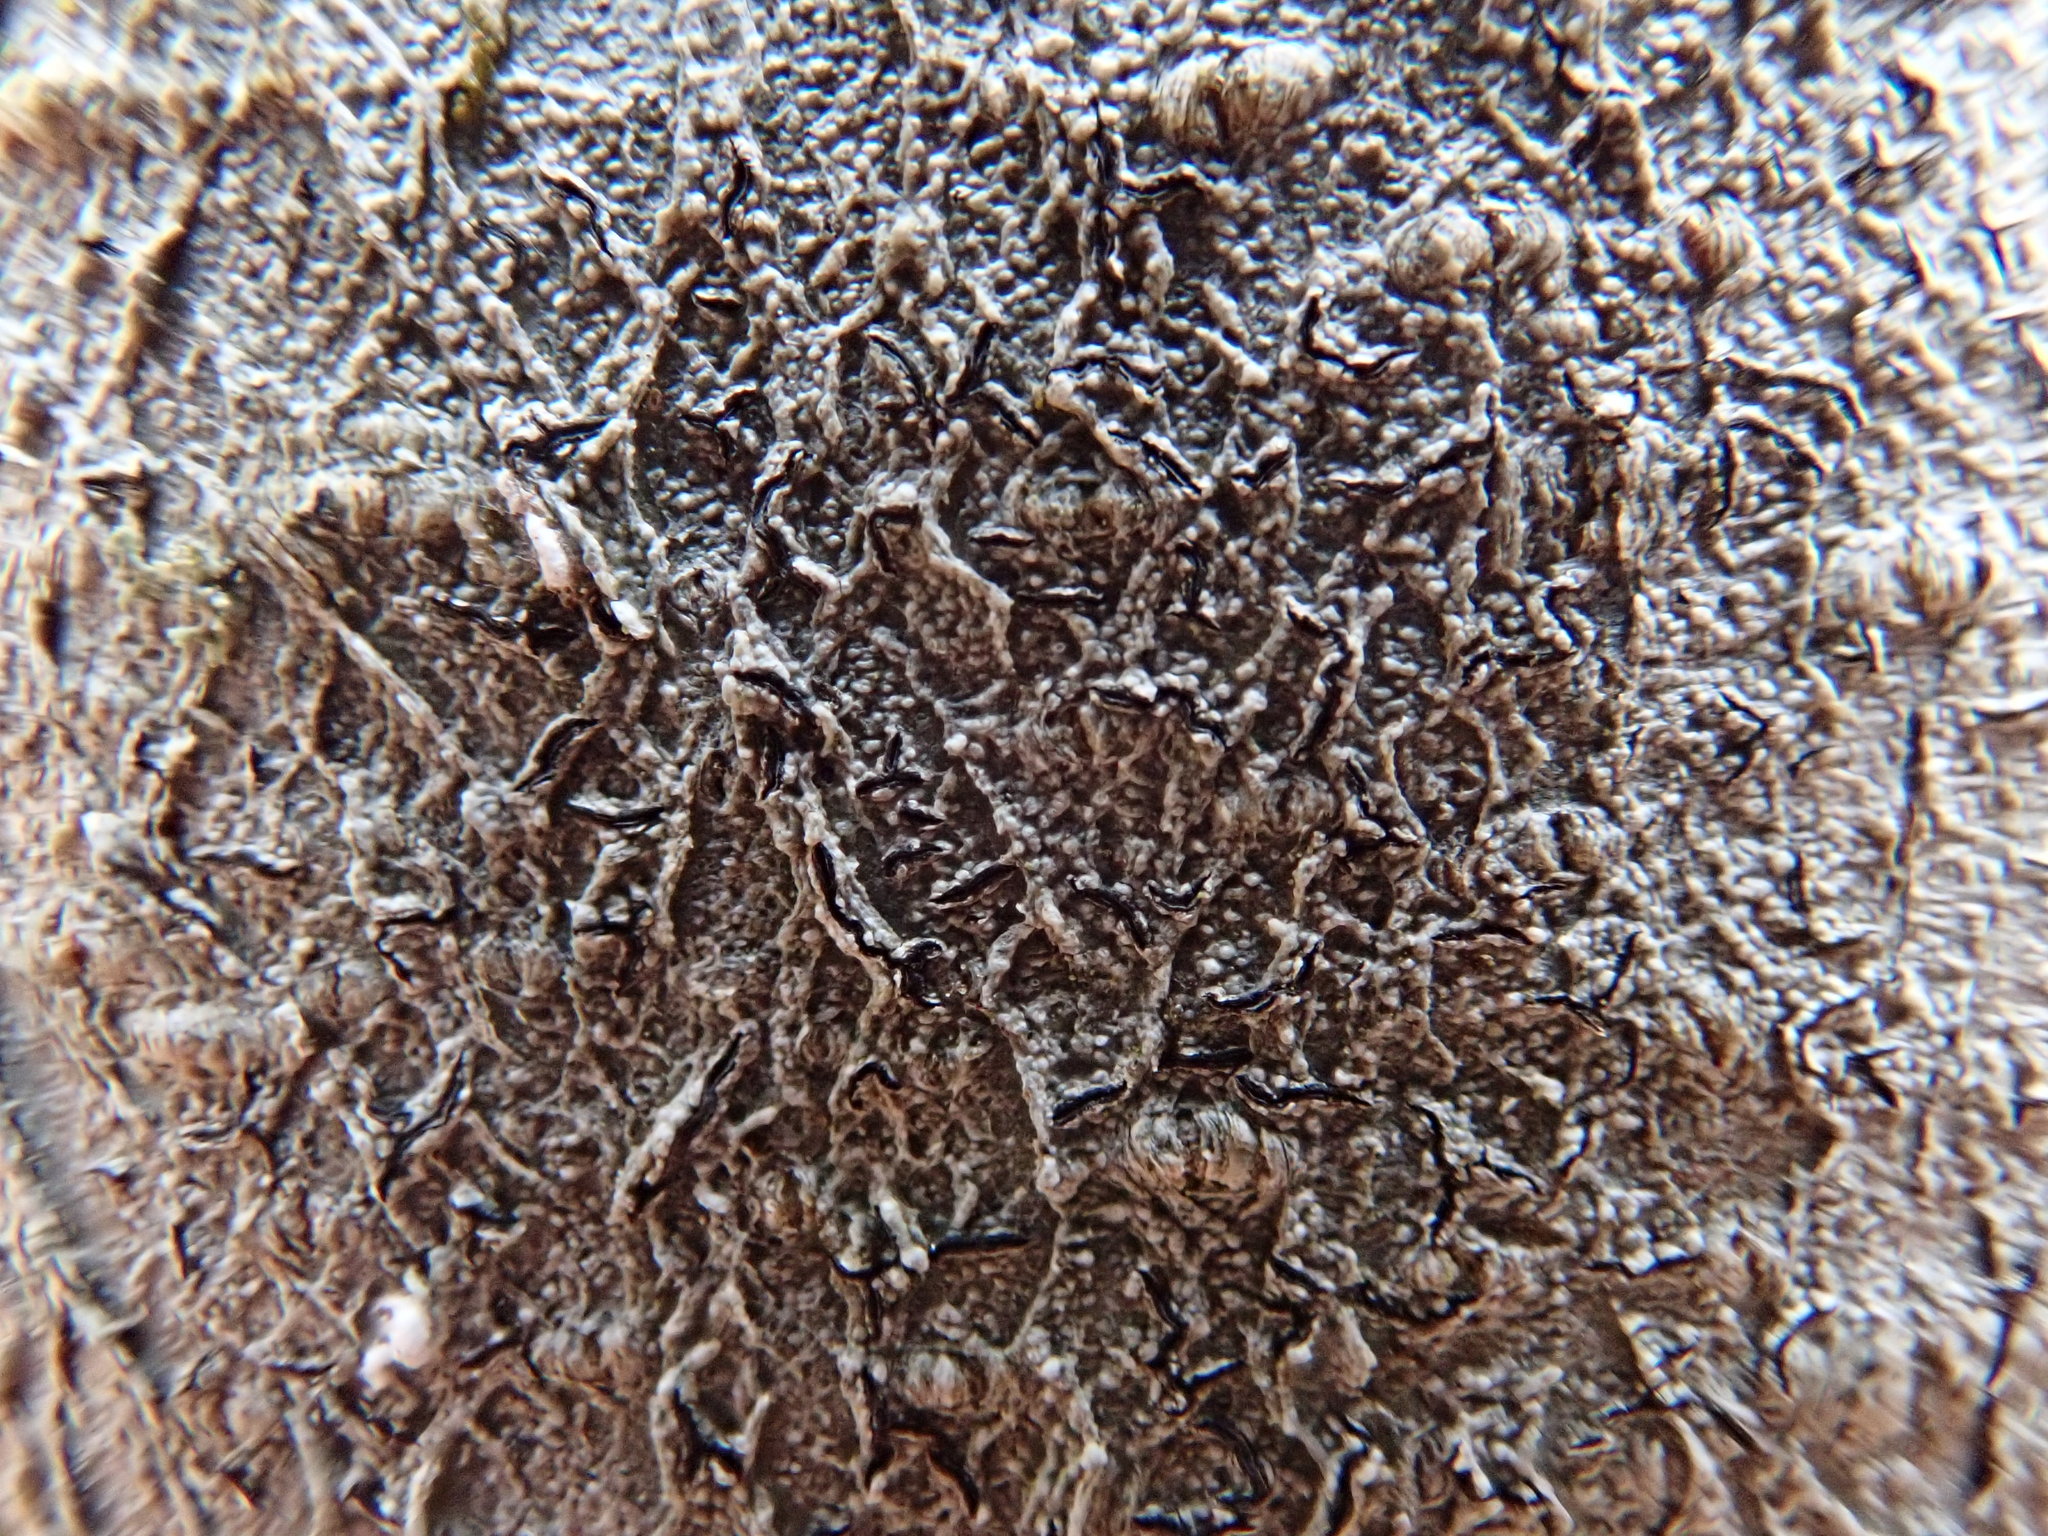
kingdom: Fungi
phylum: Ascomycota
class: Lecanoromycetes
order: Ostropales
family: Graphidaceae
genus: Graphis
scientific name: Graphis scripta
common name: Script lichen
